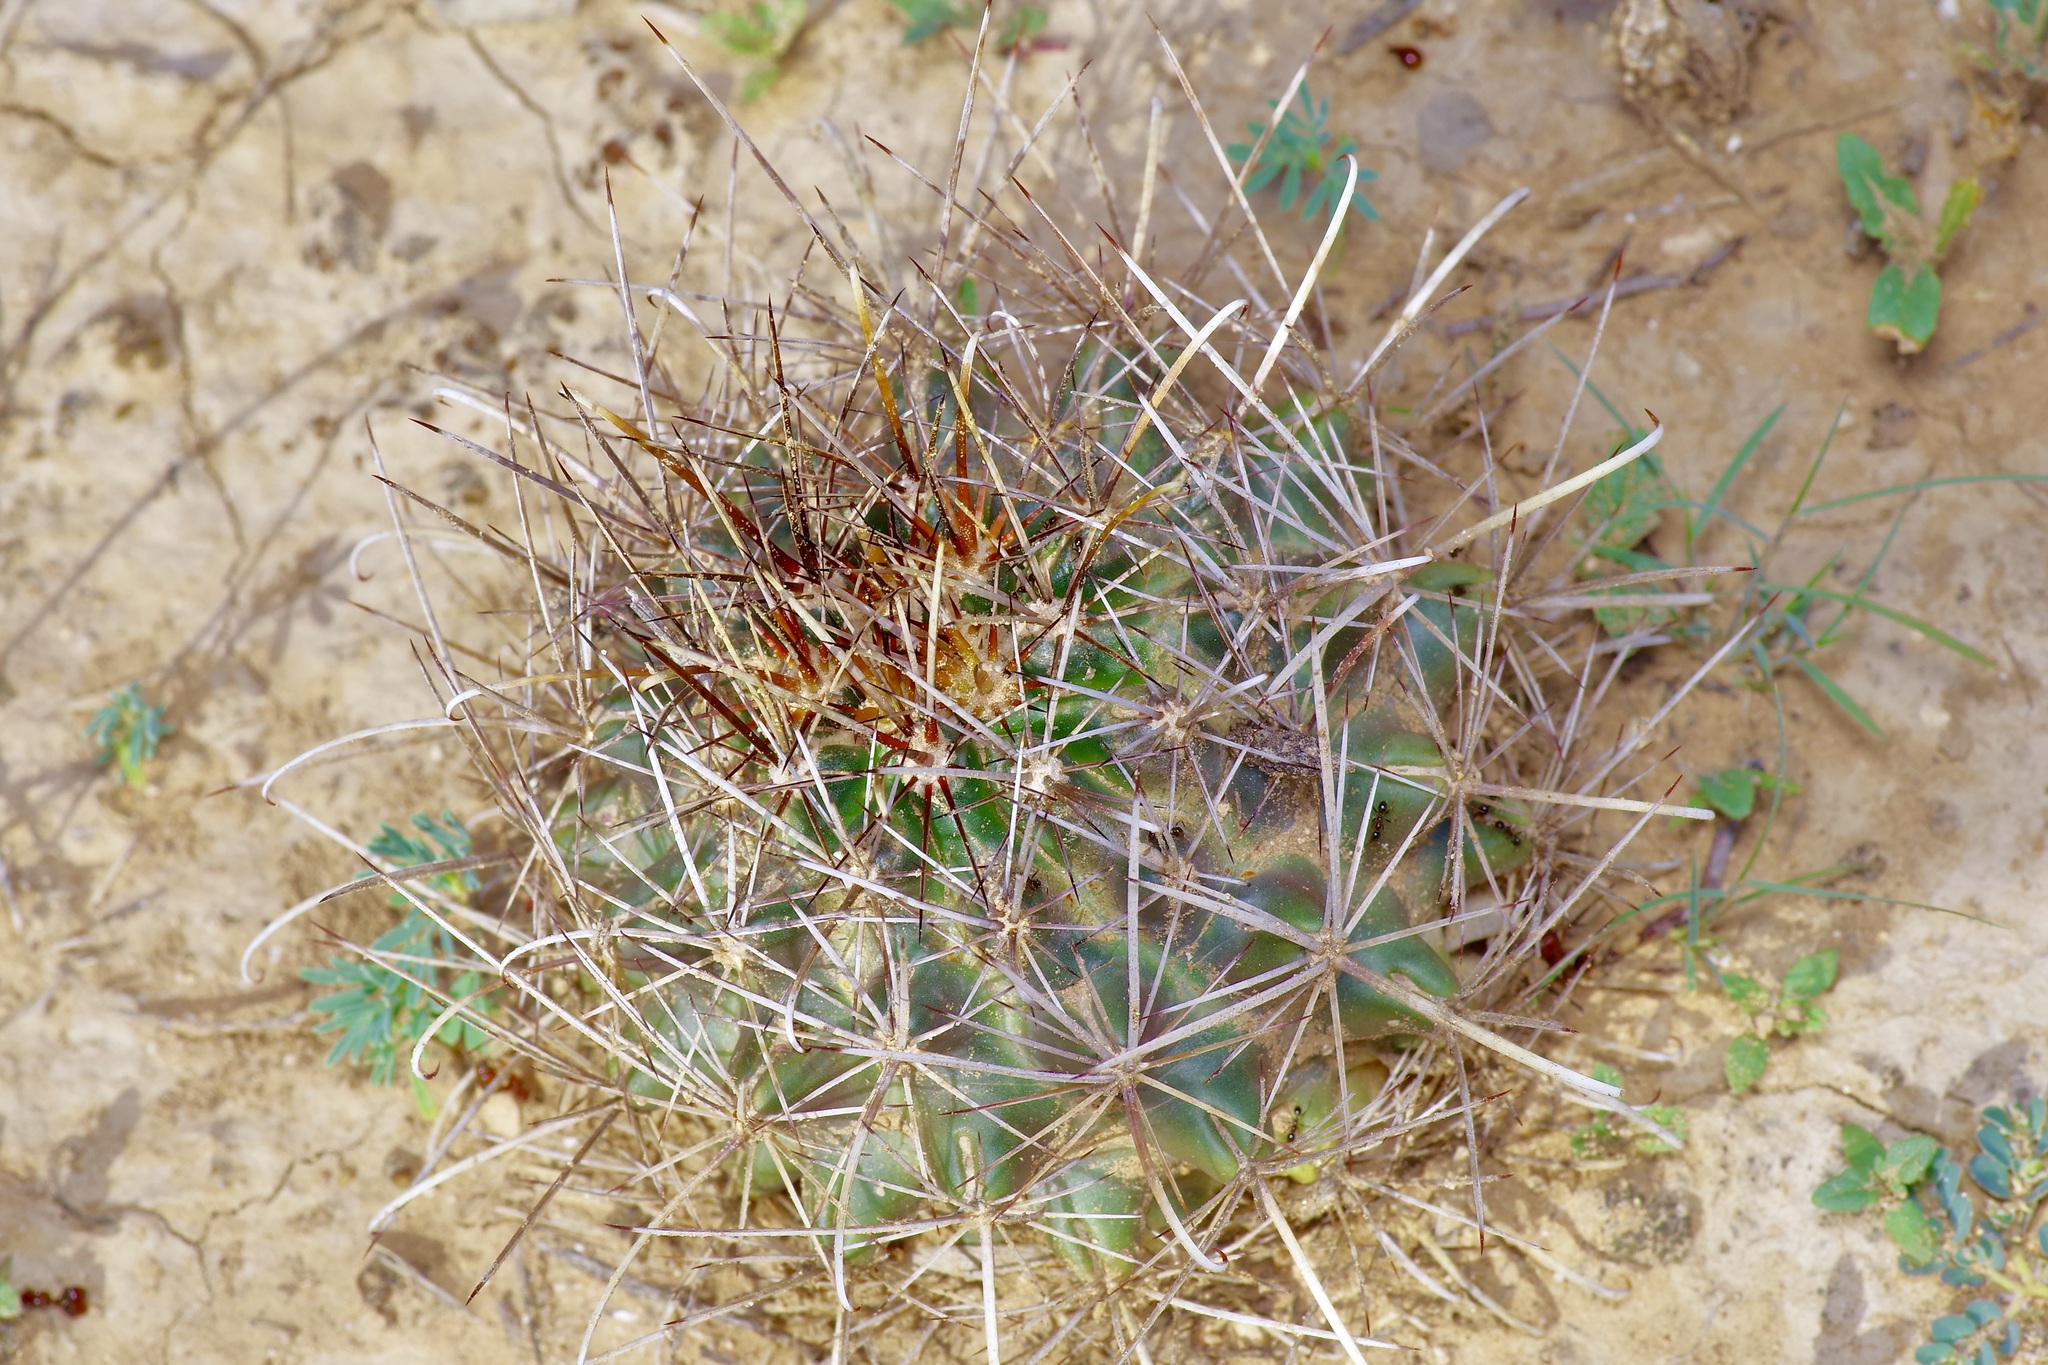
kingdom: Plantae
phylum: Tracheophyta
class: Magnoliopsida
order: Caryophyllales
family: Cactaceae
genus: Sclerocactus
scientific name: Sclerocactus brevihamatus
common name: Engelmann's fishhook cactus
